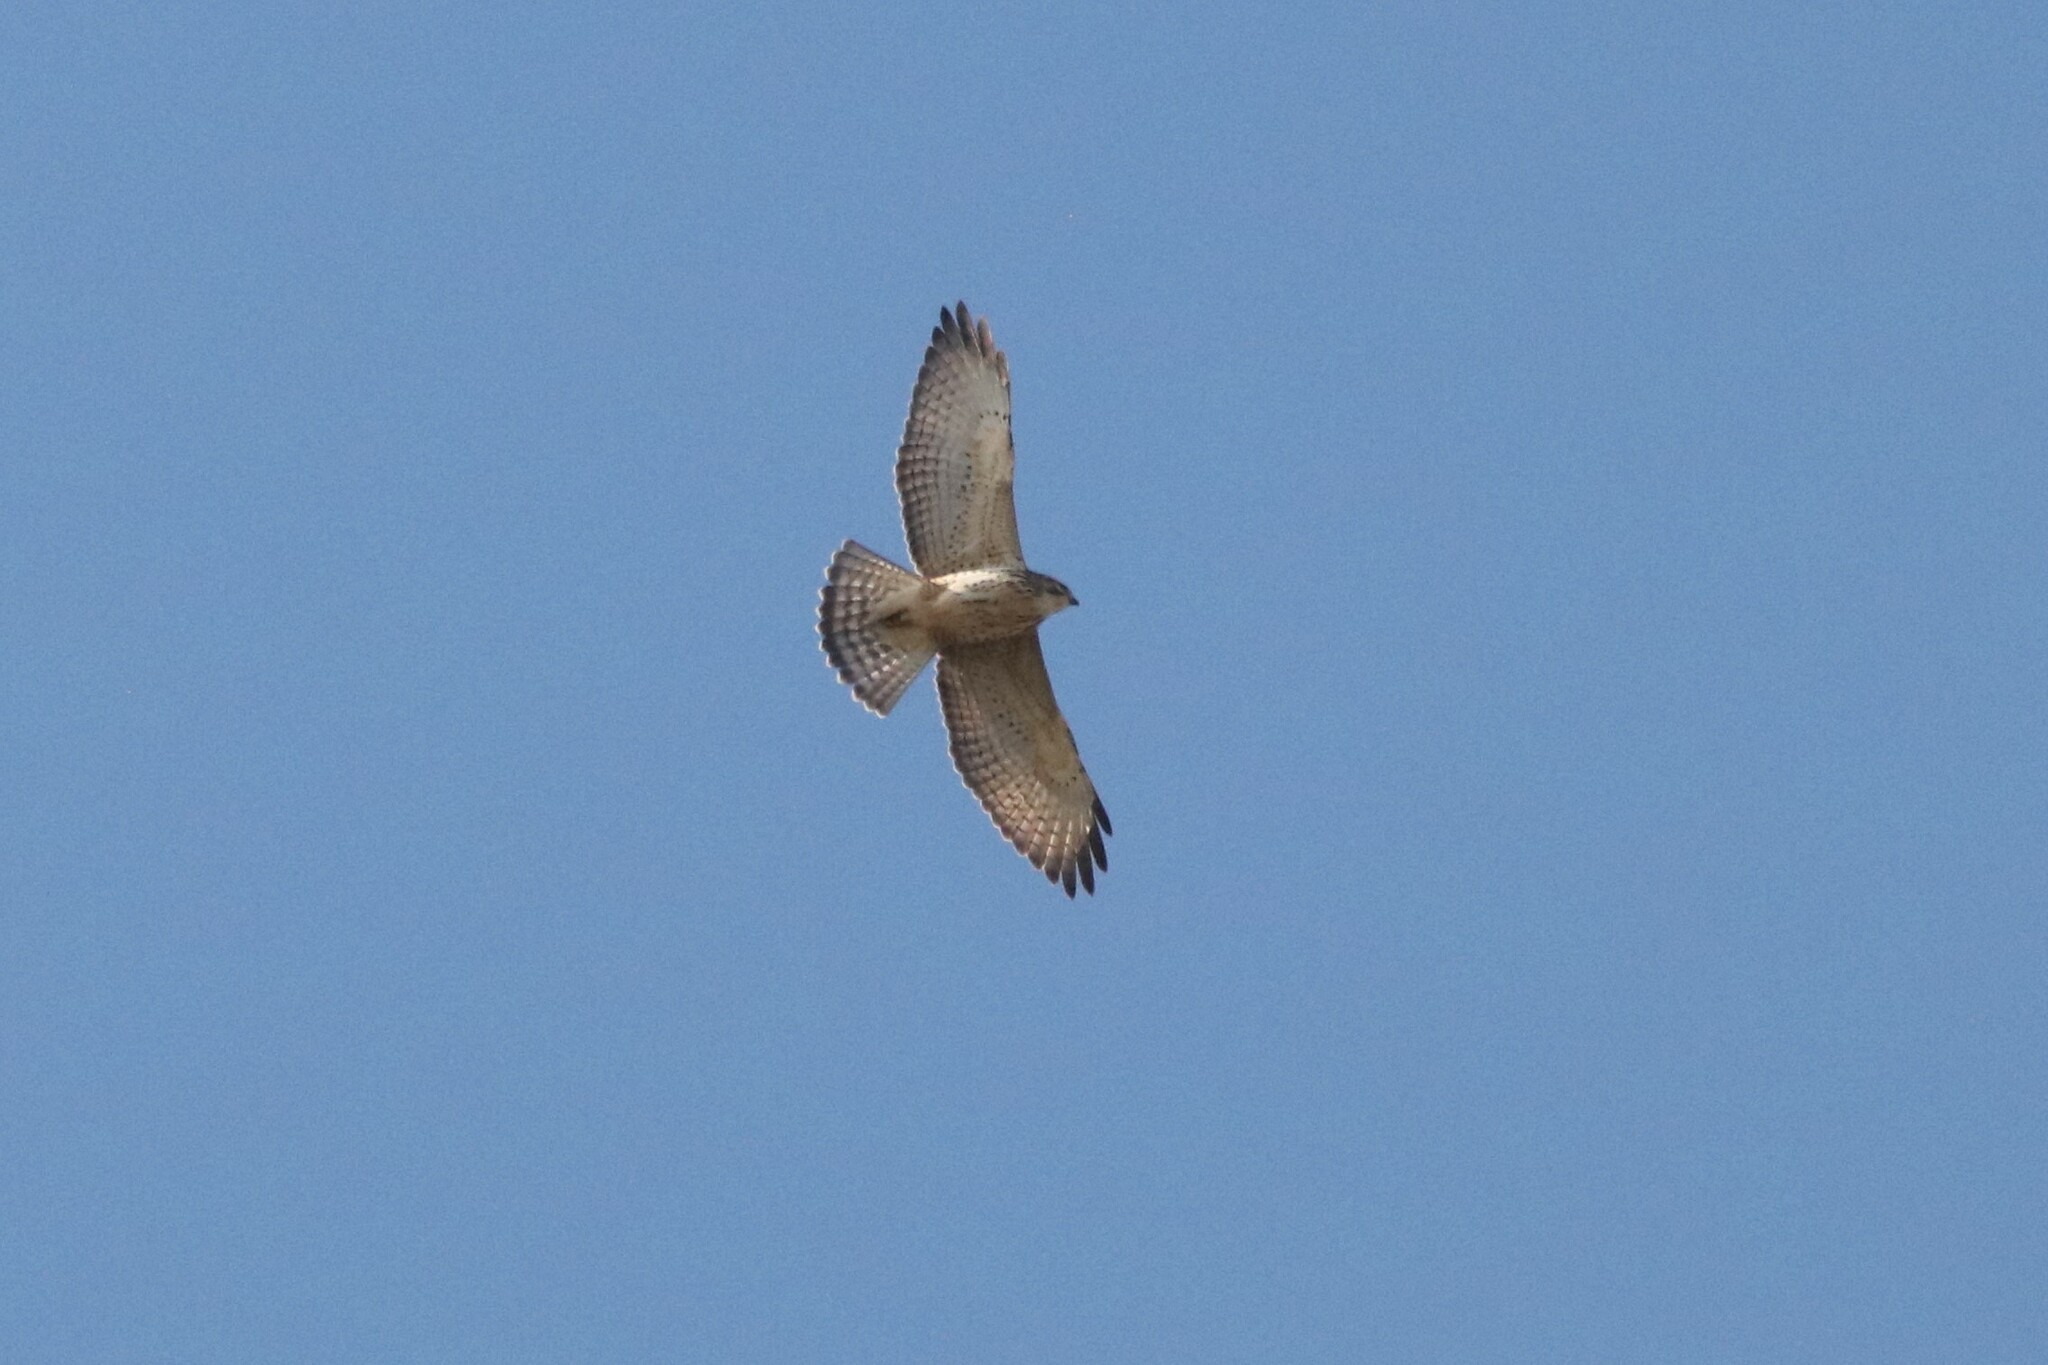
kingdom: Animalia
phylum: Chordata
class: Aves
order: Accipitriformes
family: Accipitridae
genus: Buteo
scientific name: Buteo platypterus
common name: Broad-winged hawk
